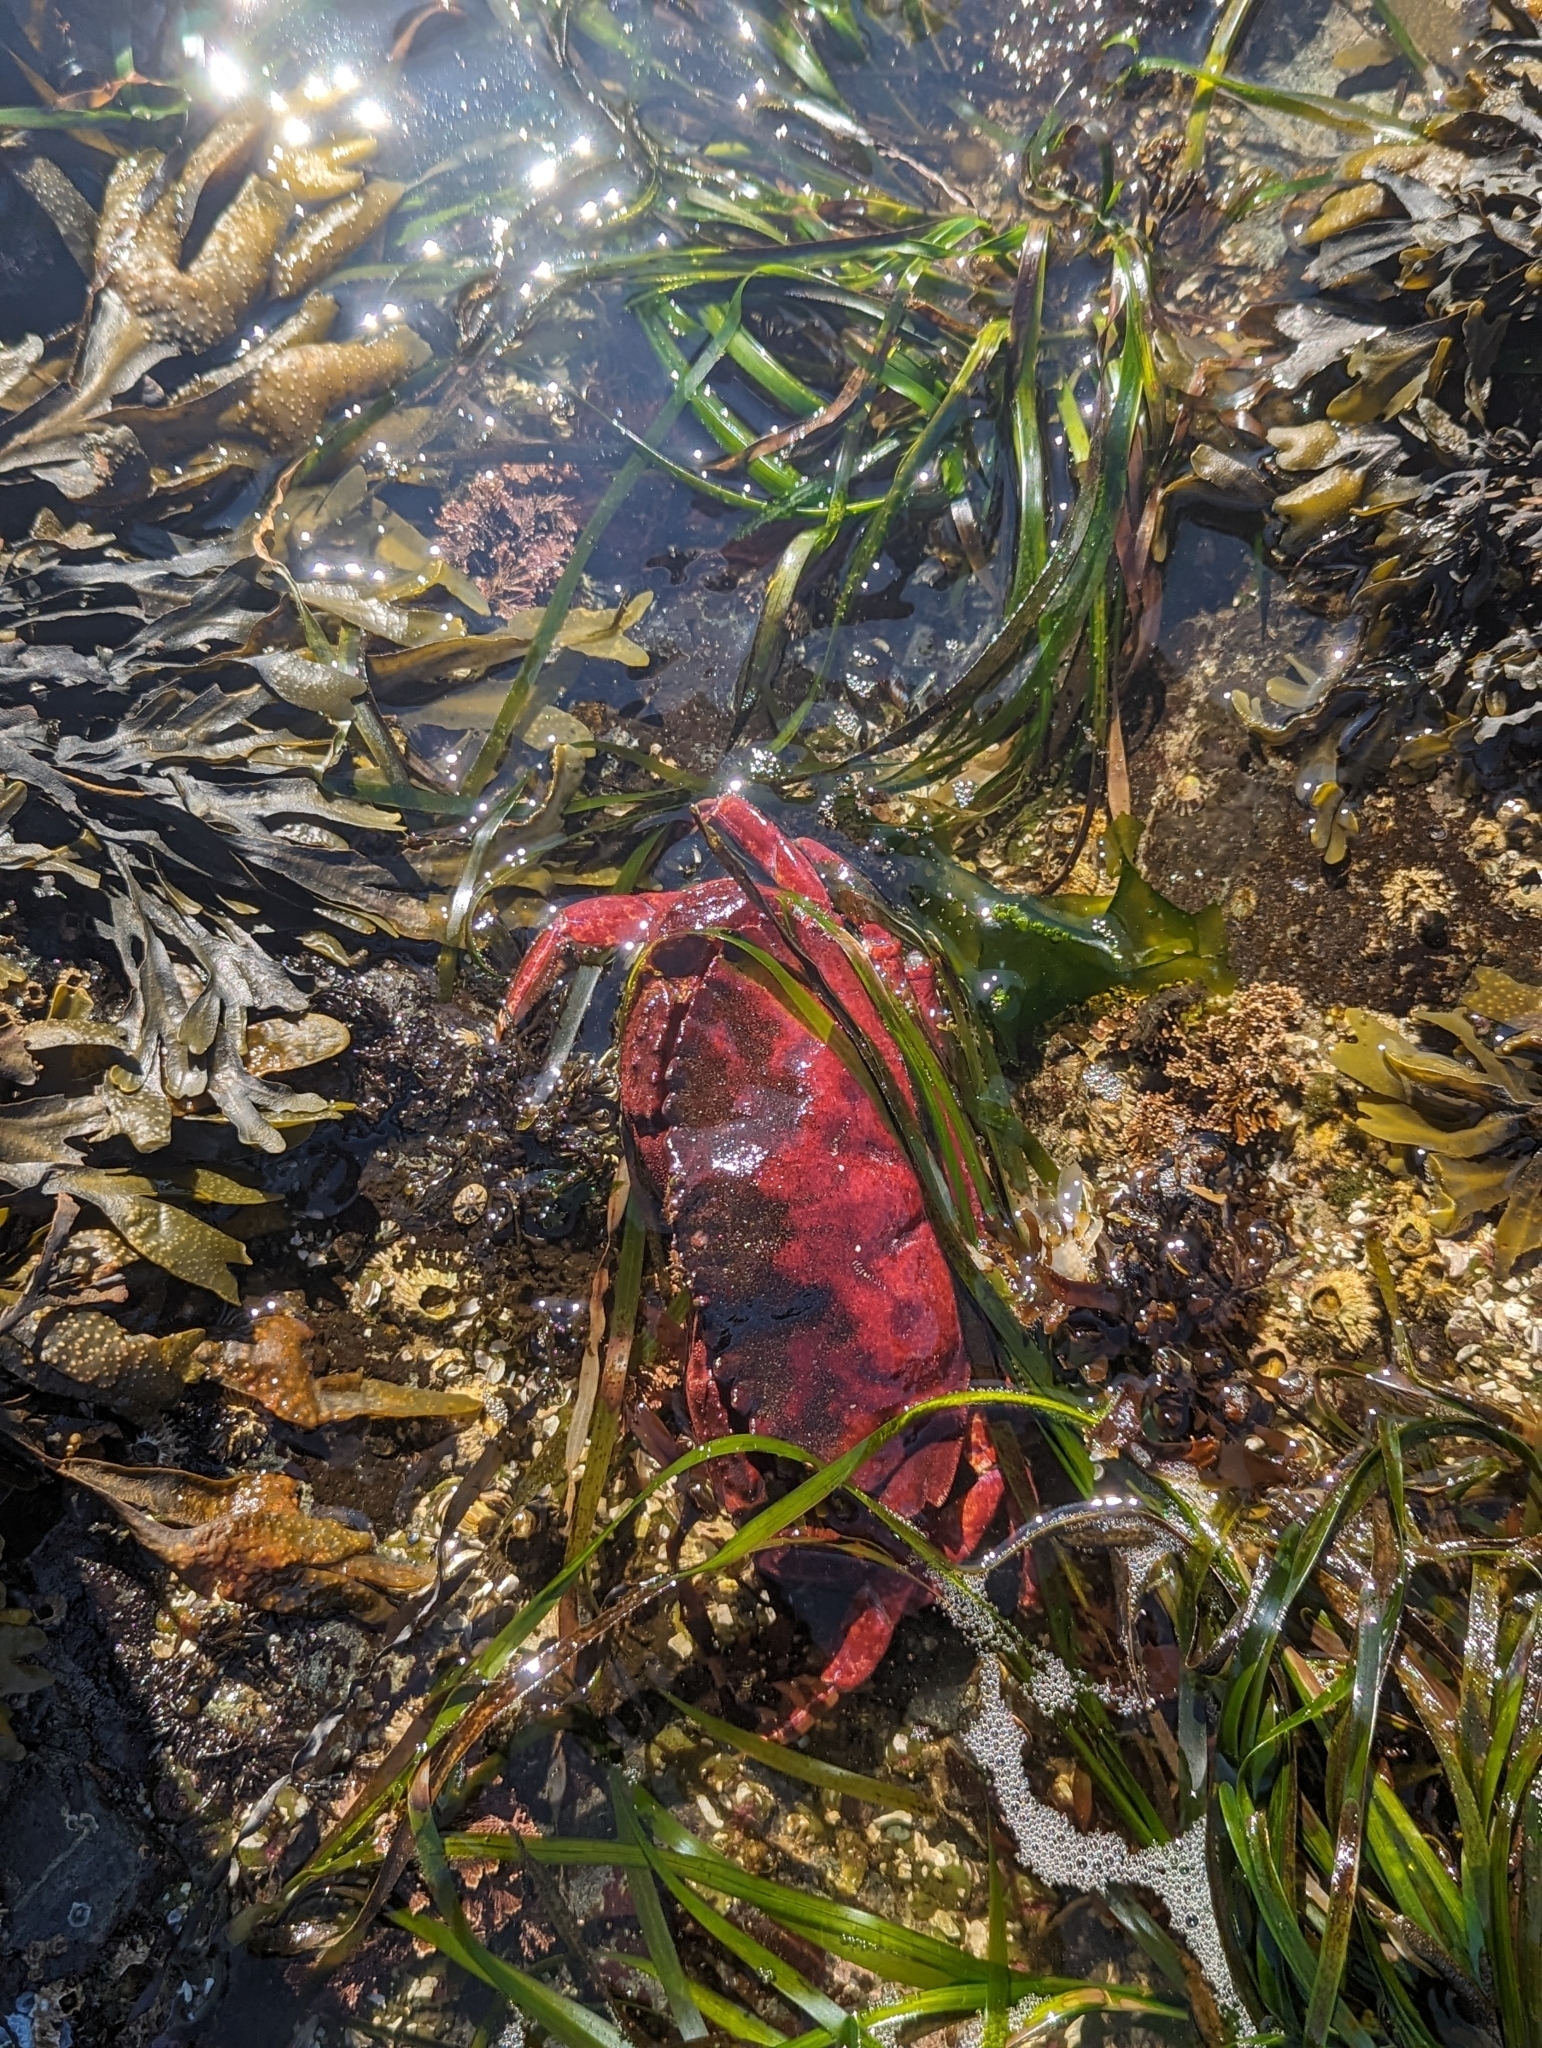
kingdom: Animalia
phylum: Arthropoda
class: Malacostraca
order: Decapoda
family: Cancridae
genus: Cancer
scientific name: Cancer productus
